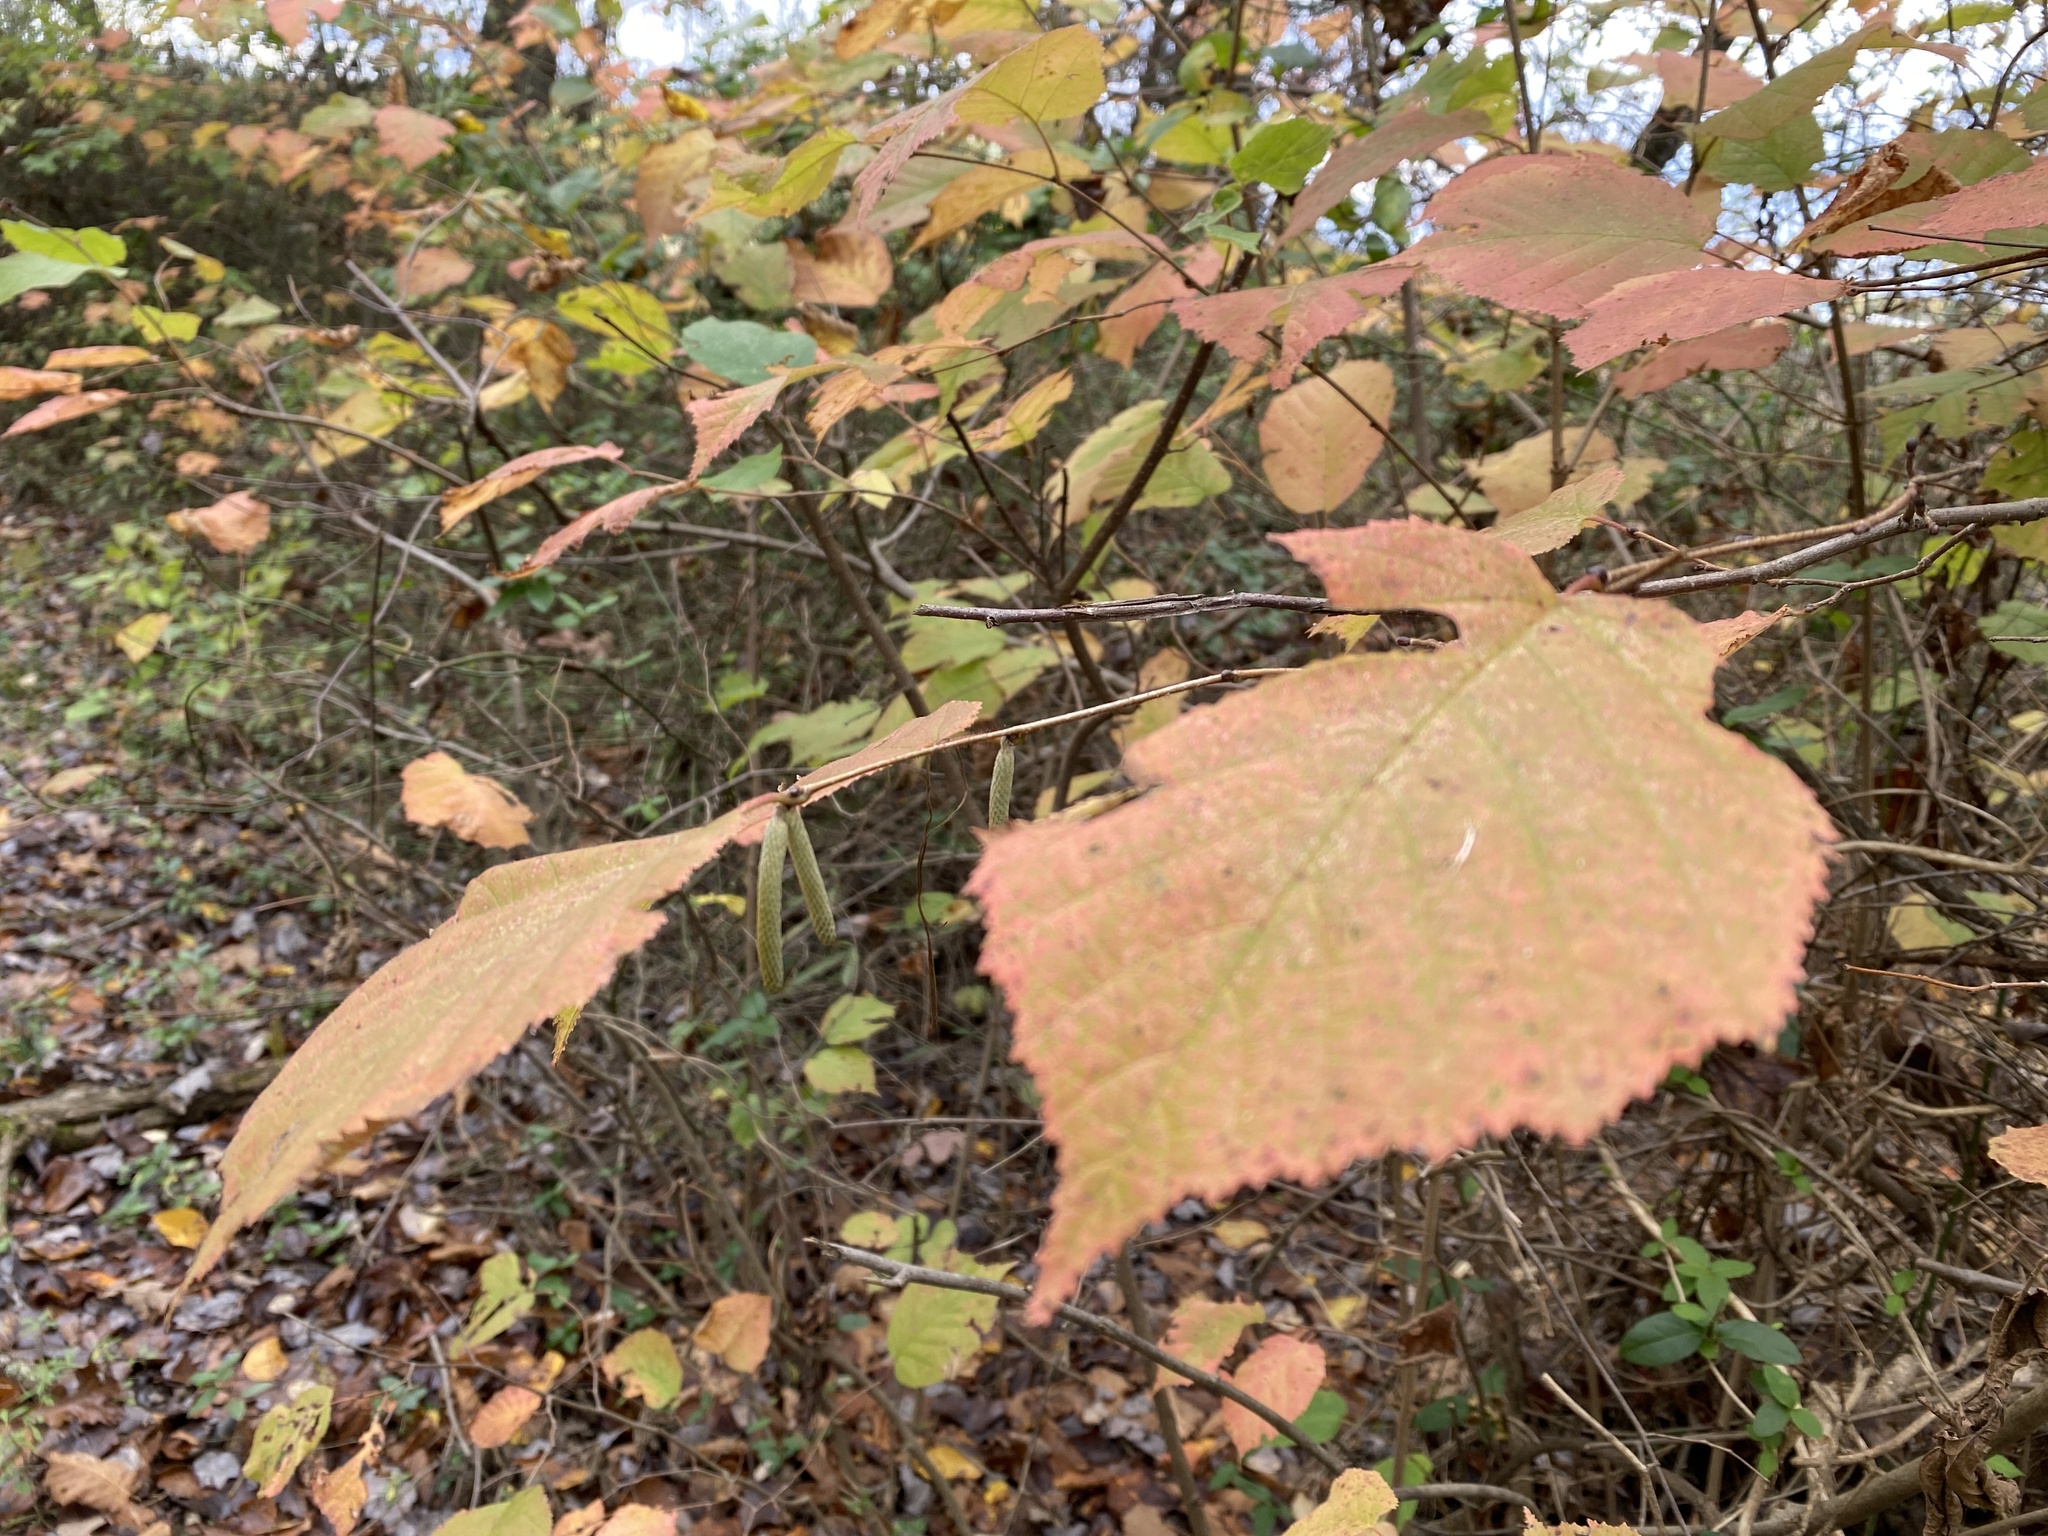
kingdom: Plantae
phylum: Tracheophyta
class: Magnoliopsida
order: Fagales
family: Betulaceae
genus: Corylus
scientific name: Corylus americana
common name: American hazel
